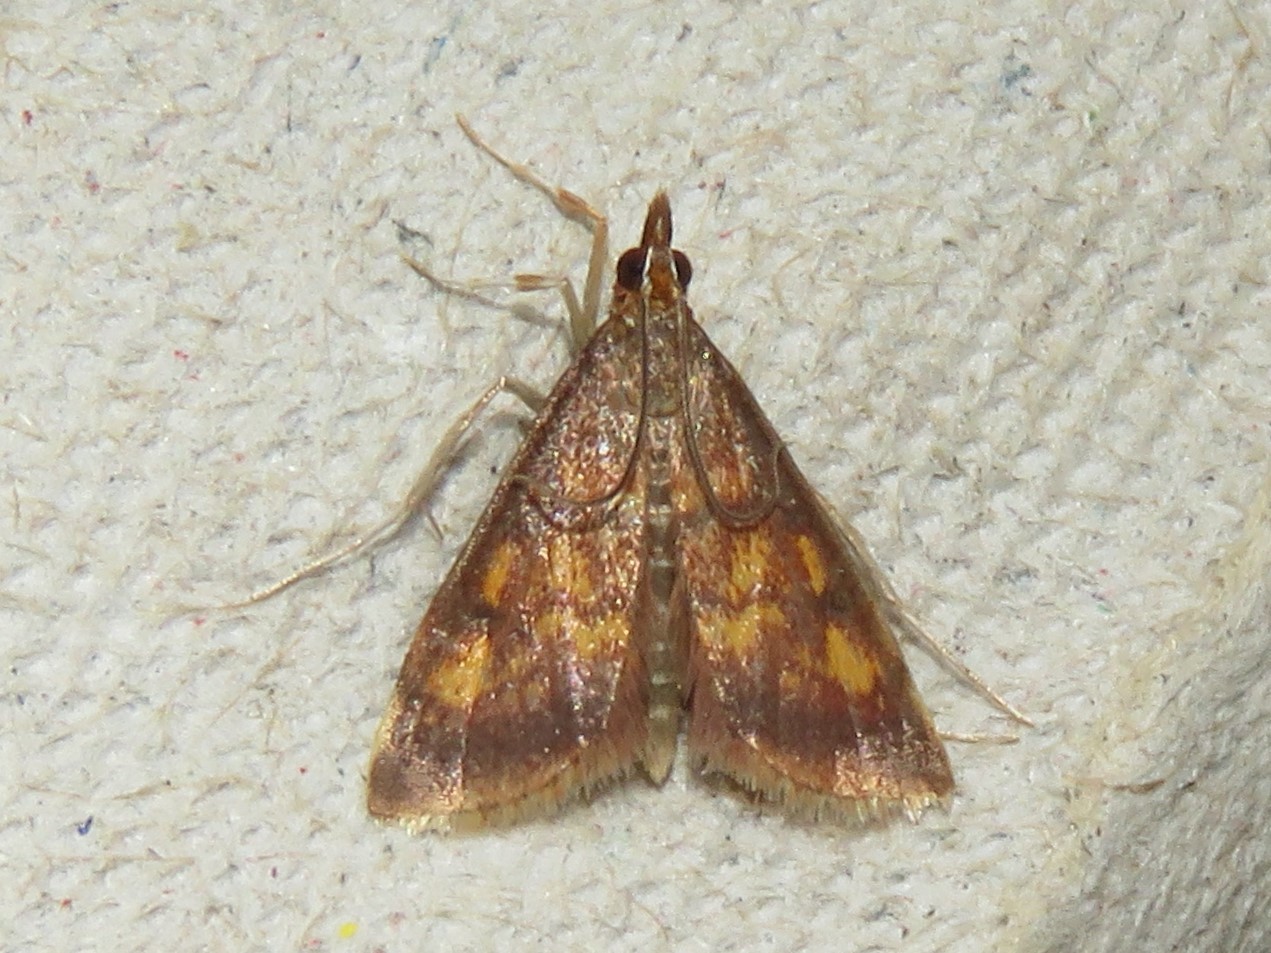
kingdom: Animalia
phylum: Arthropoda
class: Insecta
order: Lepidoptera
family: Crambidae
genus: Pyrausta
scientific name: Pyrausta acrionalis
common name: Mint-loving pyrausta moth
